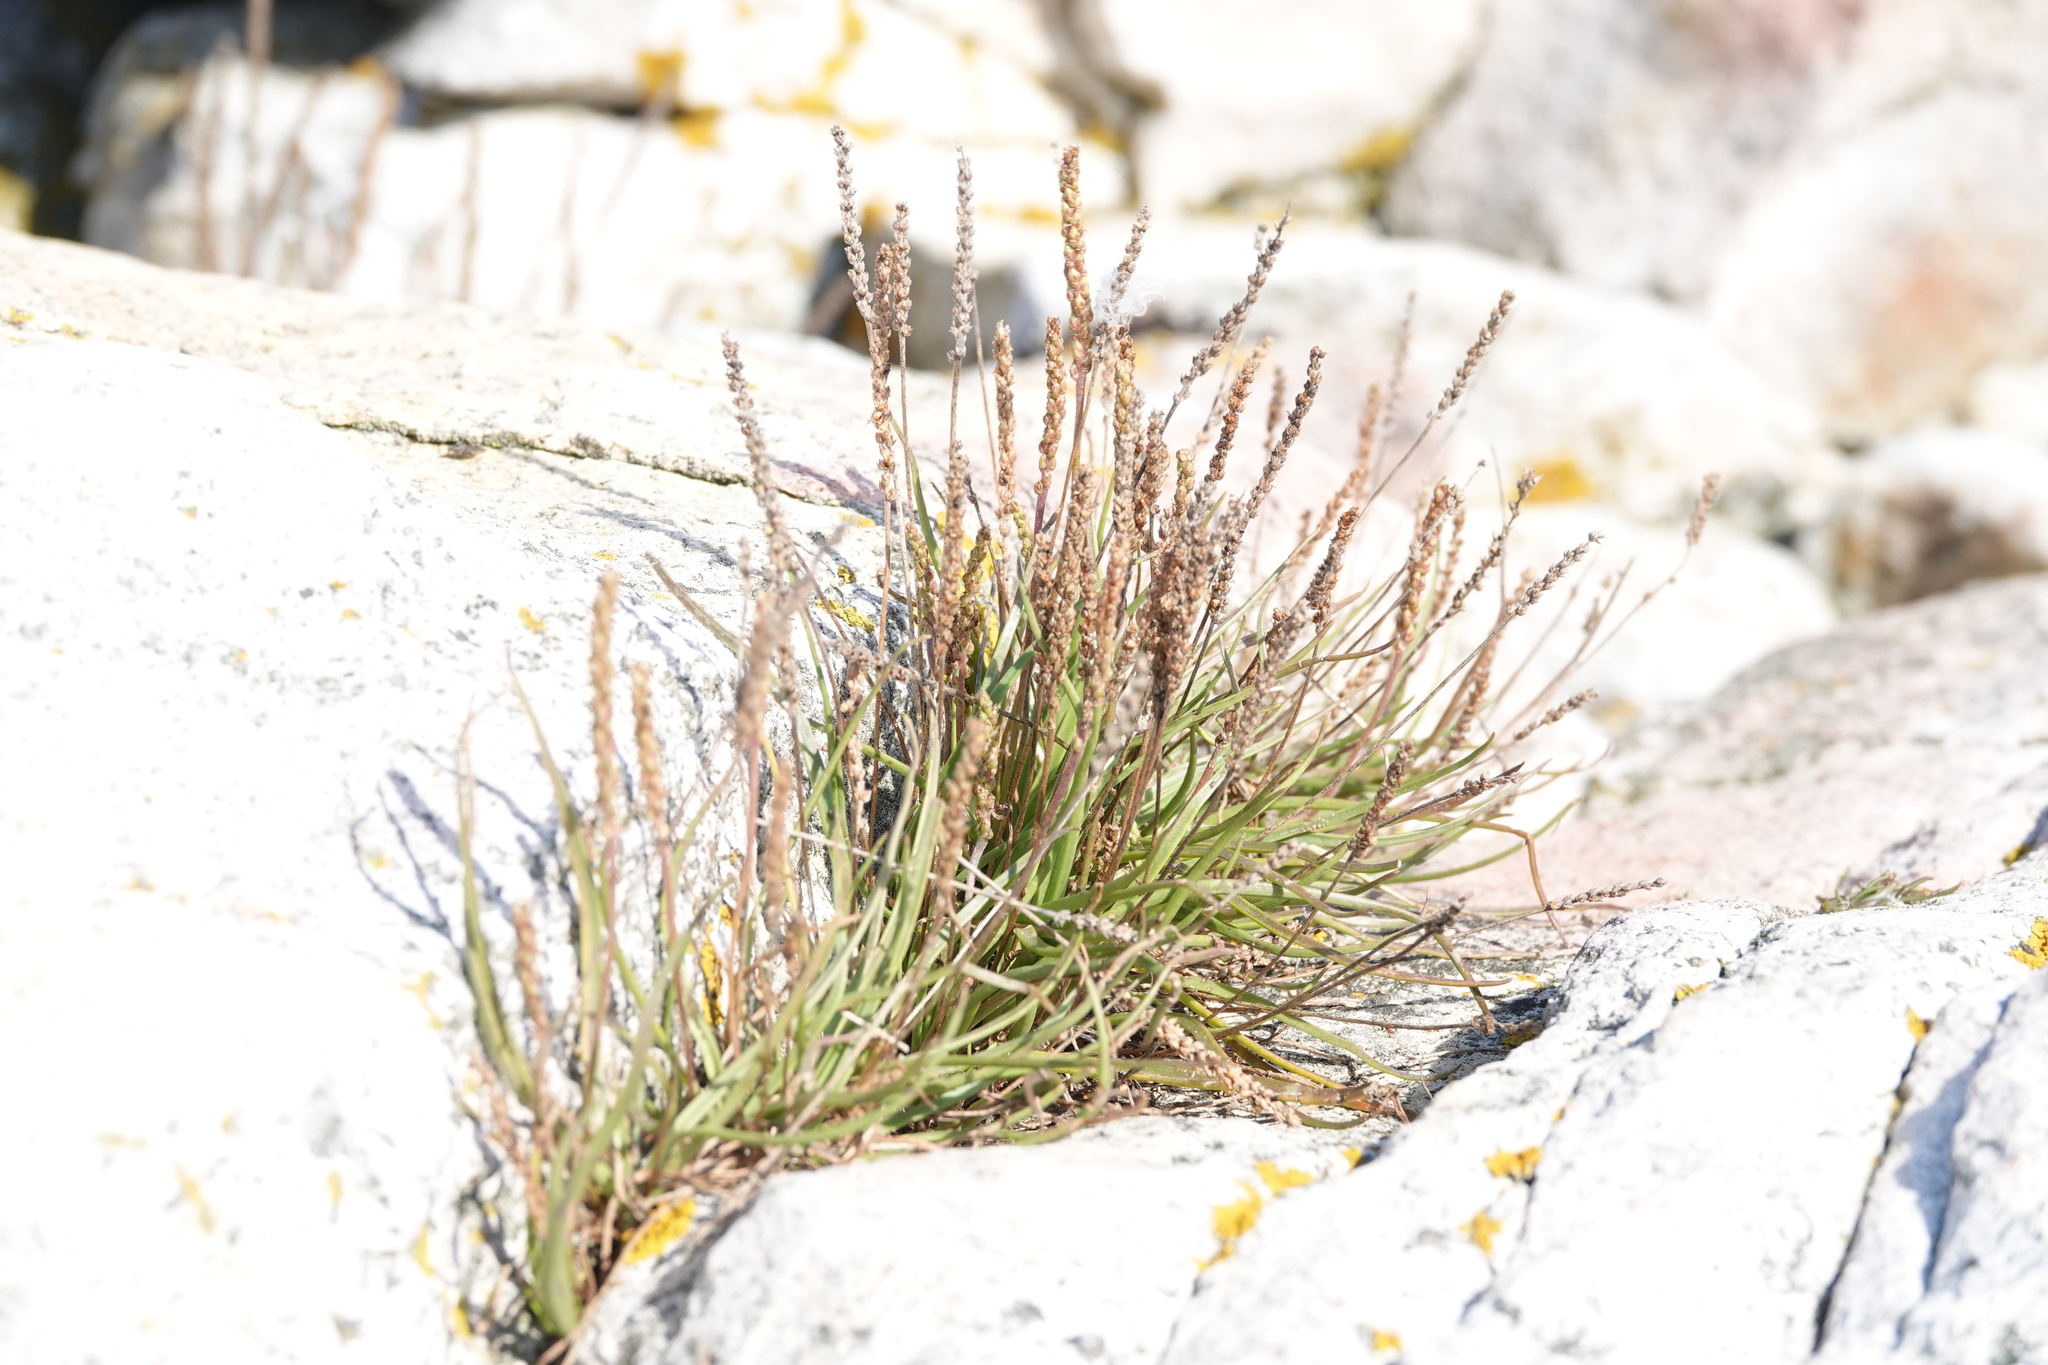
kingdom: Plantae
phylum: Tracheophyta
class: Magnoliopsida
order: Lamiales
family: Plantaginaceae
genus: Plantago
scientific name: Plantago maritima
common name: Sea plantain
